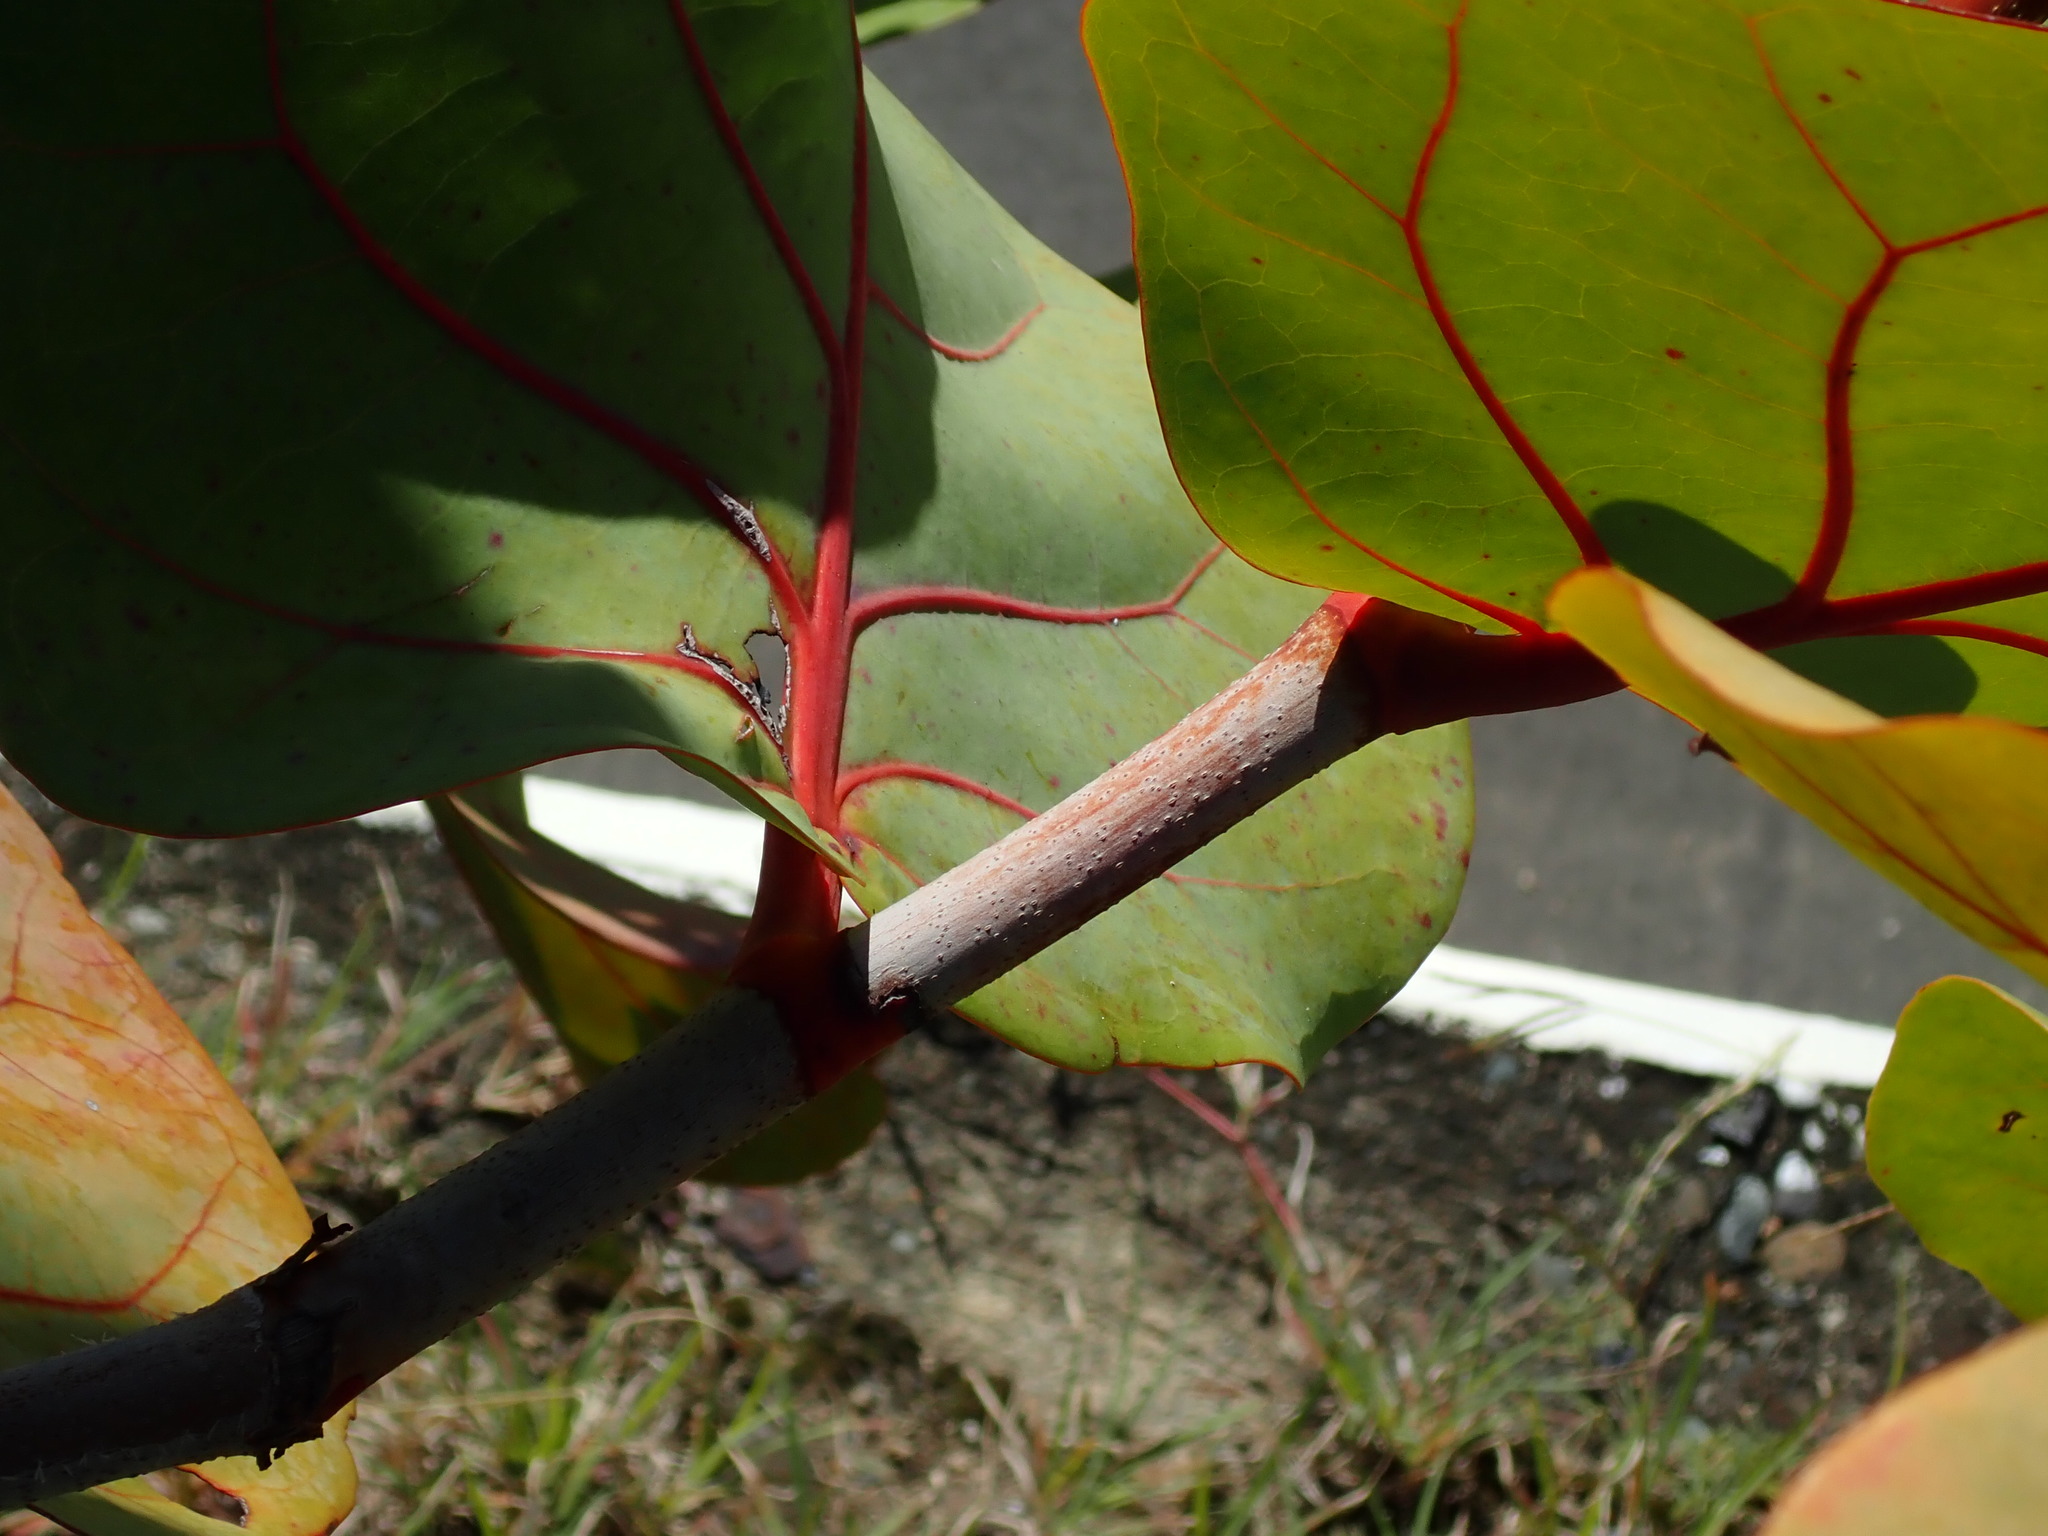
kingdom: Plantae
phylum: Tracheophyta
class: Magnoliopsida
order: Caryophyllales
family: Polygonaceae
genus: Coccoloba
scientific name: Coccoloba uvifera
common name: Seagrape
